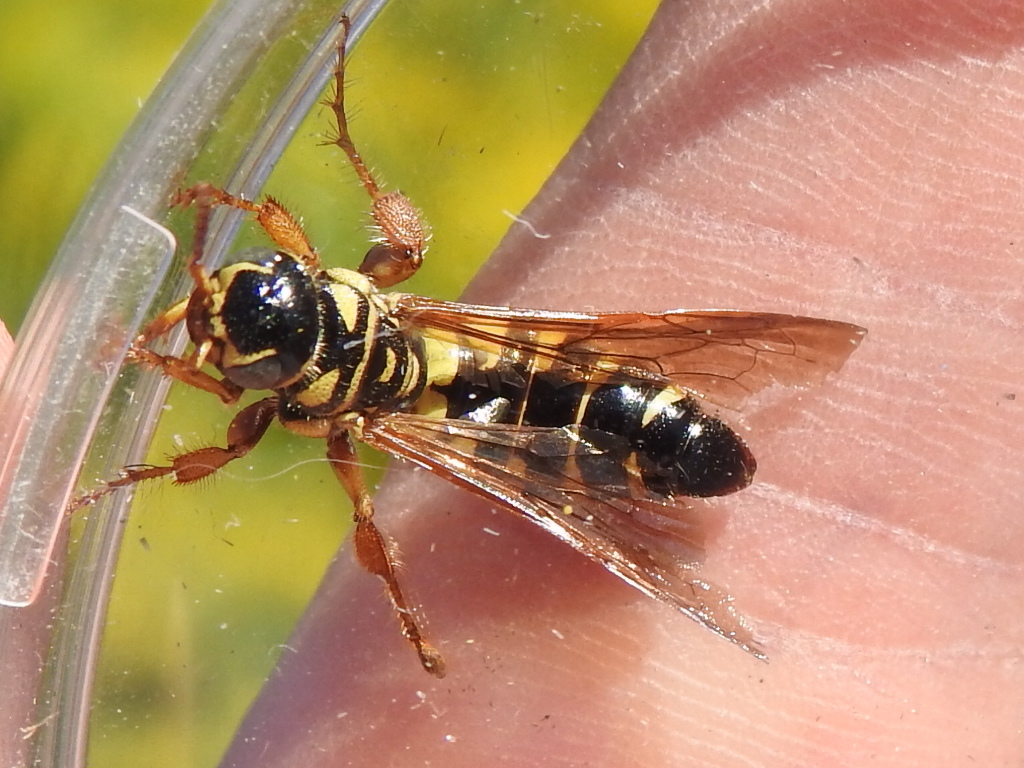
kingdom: Animalia
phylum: Arthropoda
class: Insecta
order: Hymenoptera
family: Tiphiidae
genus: Myzinum
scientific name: Myzinum quinquecinctum
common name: Five-banded thynnid wasp
